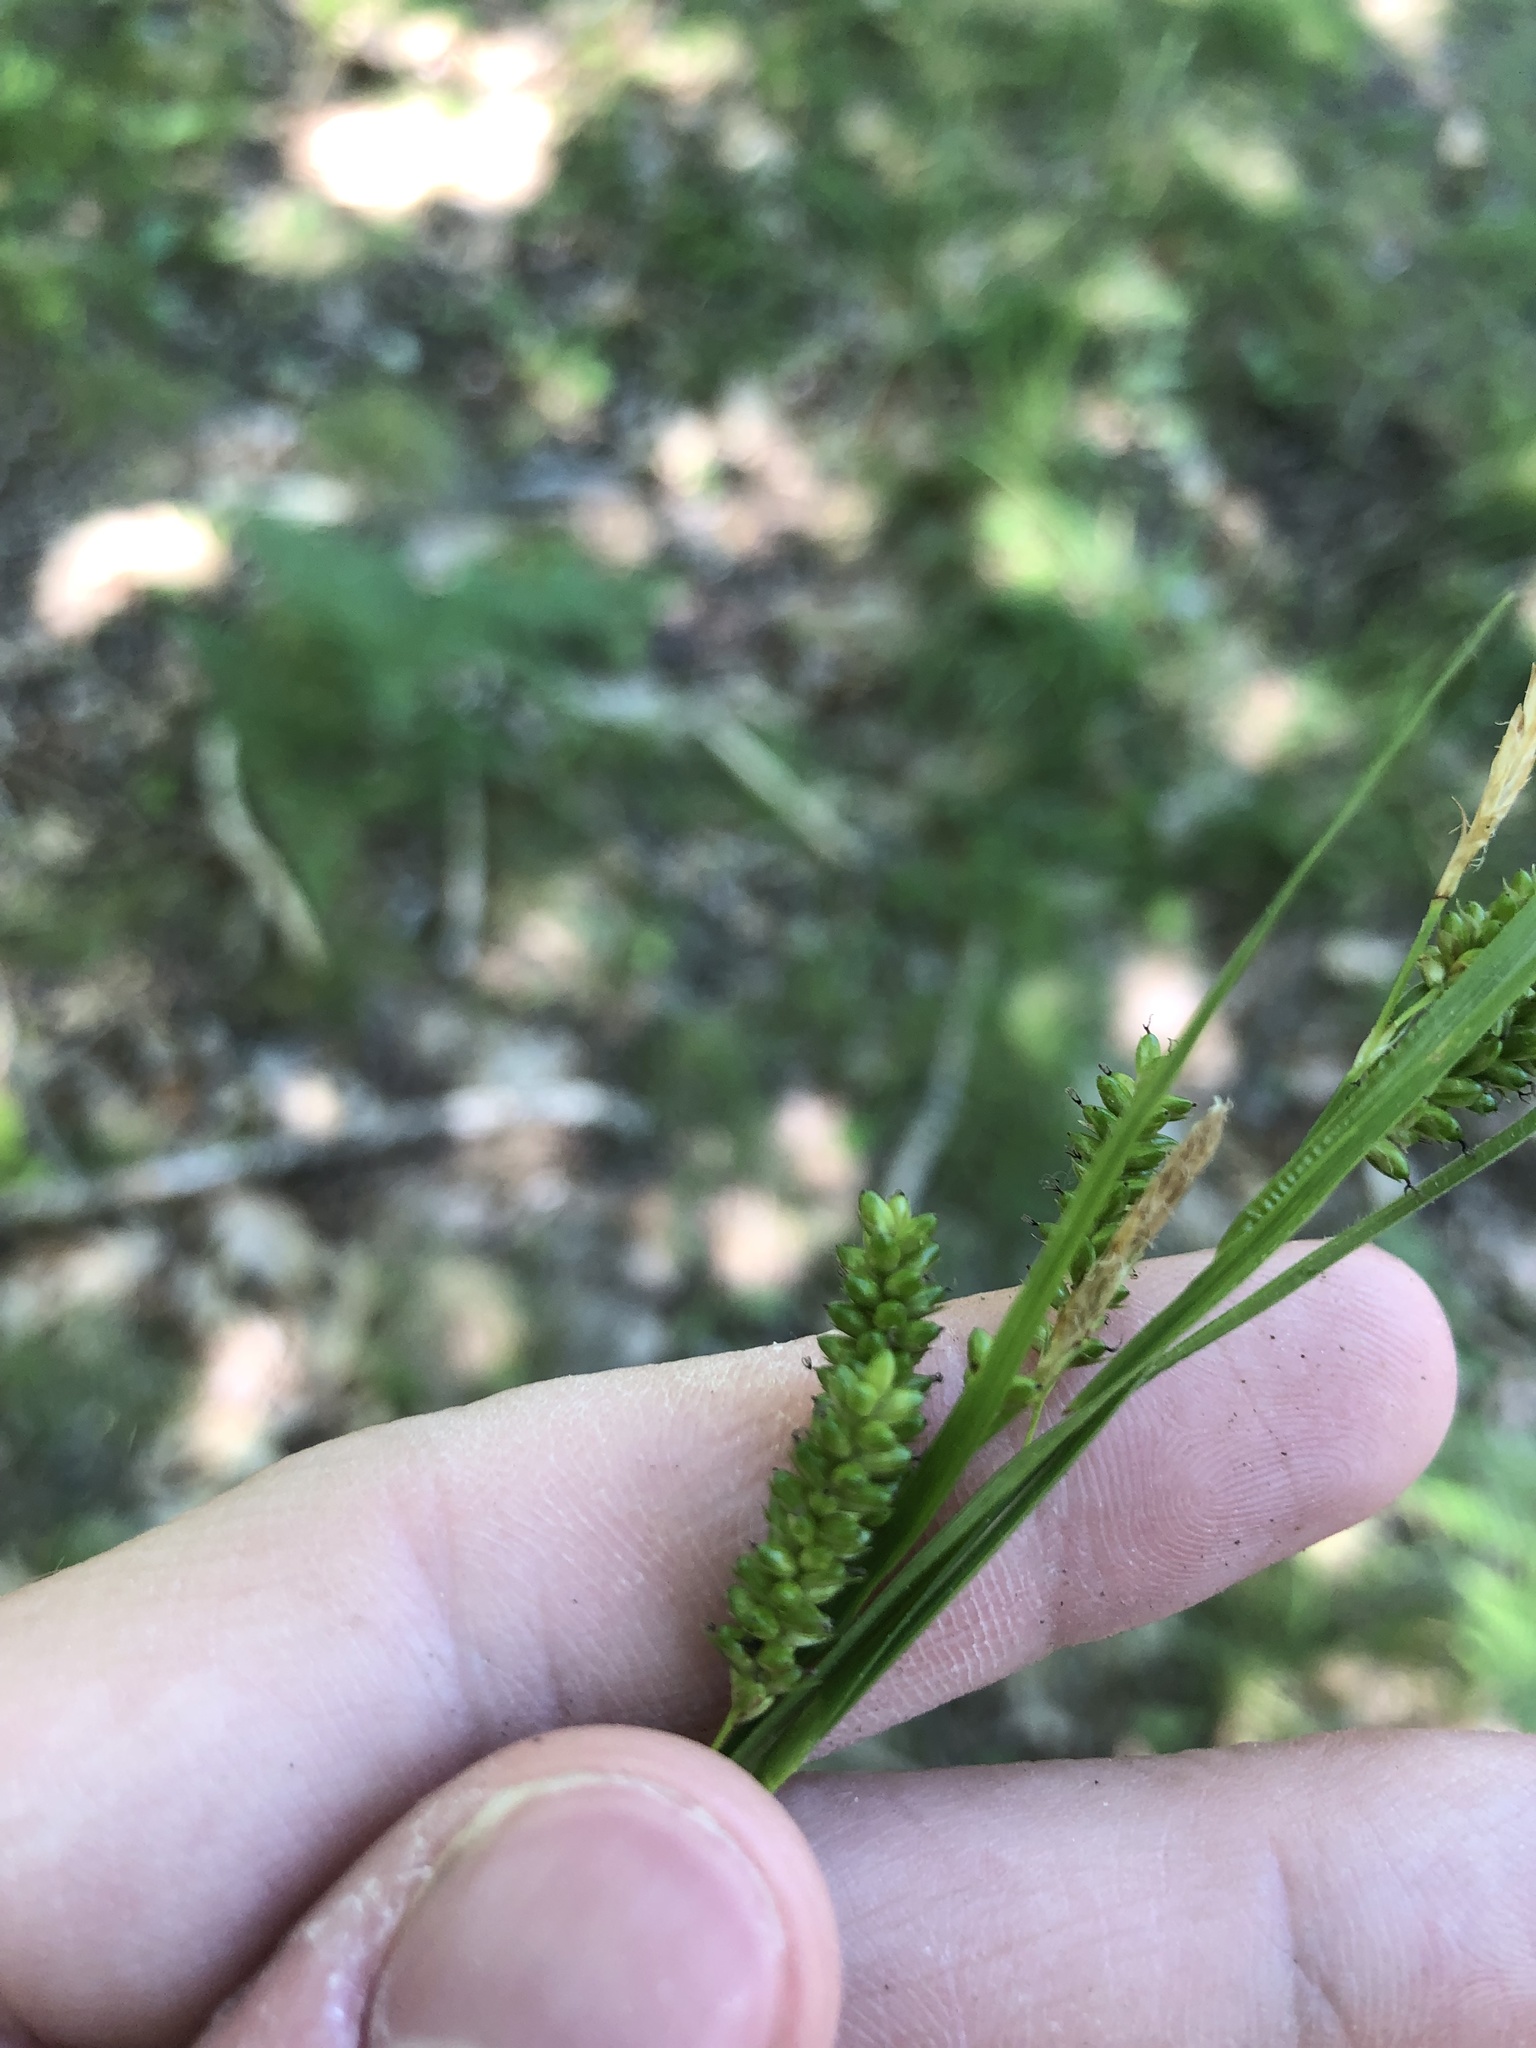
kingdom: Plantae
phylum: Tracheophyta
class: Liliopsida
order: Poales
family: Cyperaceae
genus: Carex
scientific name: Carex pallescens
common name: Pale sedge
